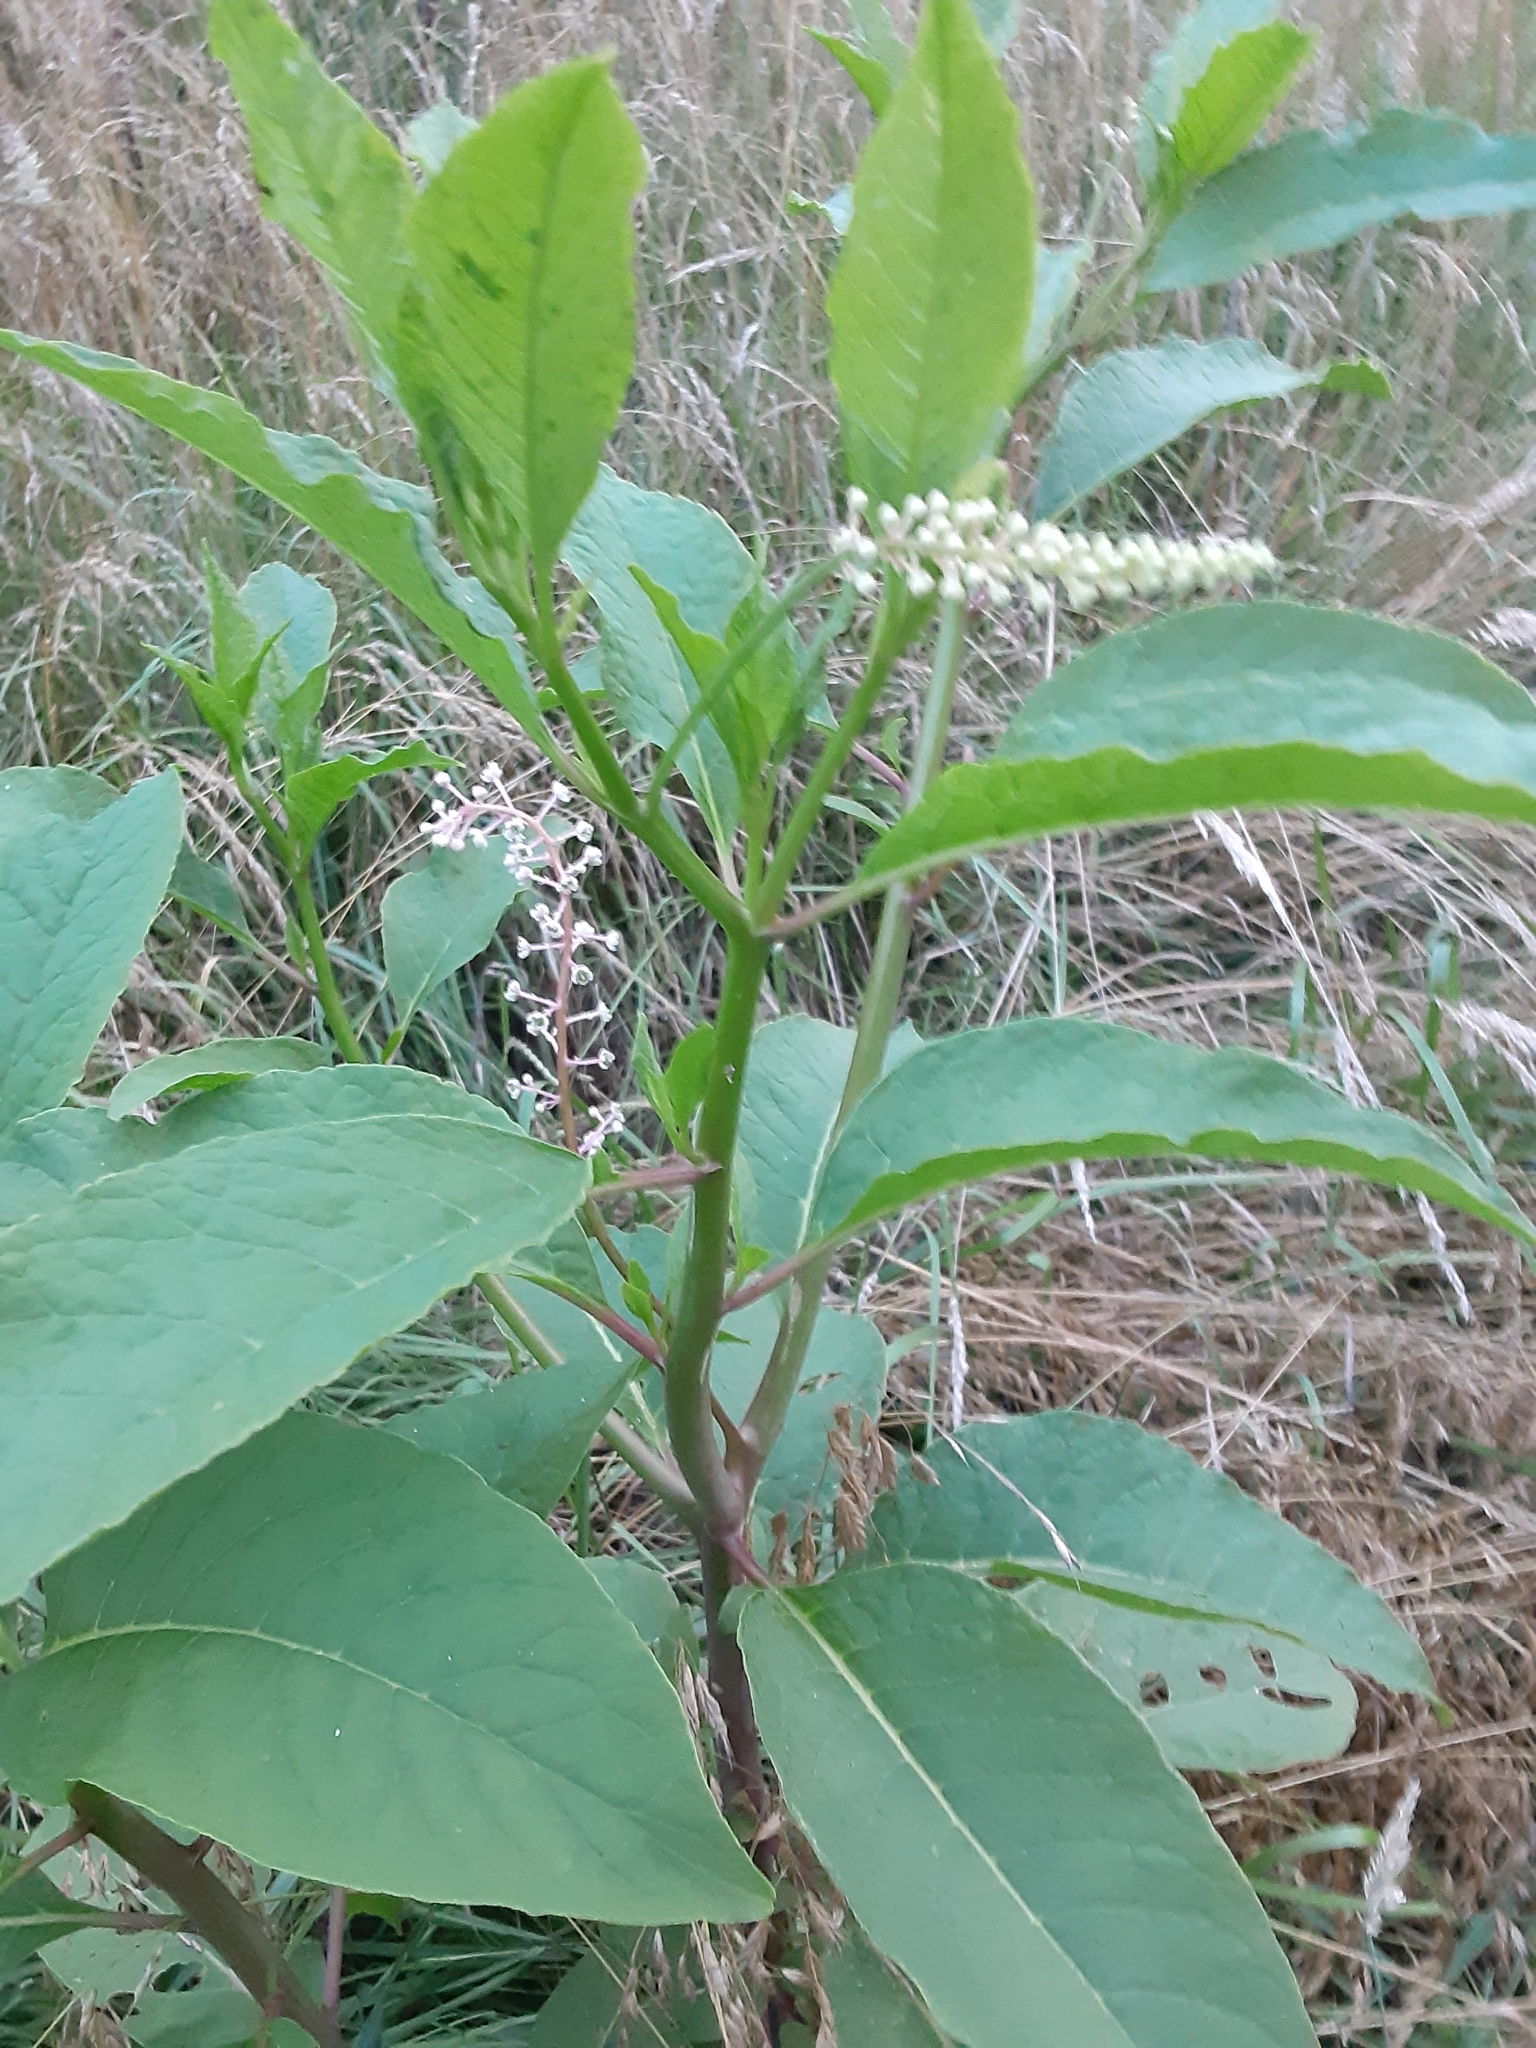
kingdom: Plantae
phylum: Tracheophyta
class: Magnoliopsida
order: Caryophyllales
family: Phytolaccaceae
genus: Phytolacca
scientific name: Phytolacca americana
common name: American pokeweed
